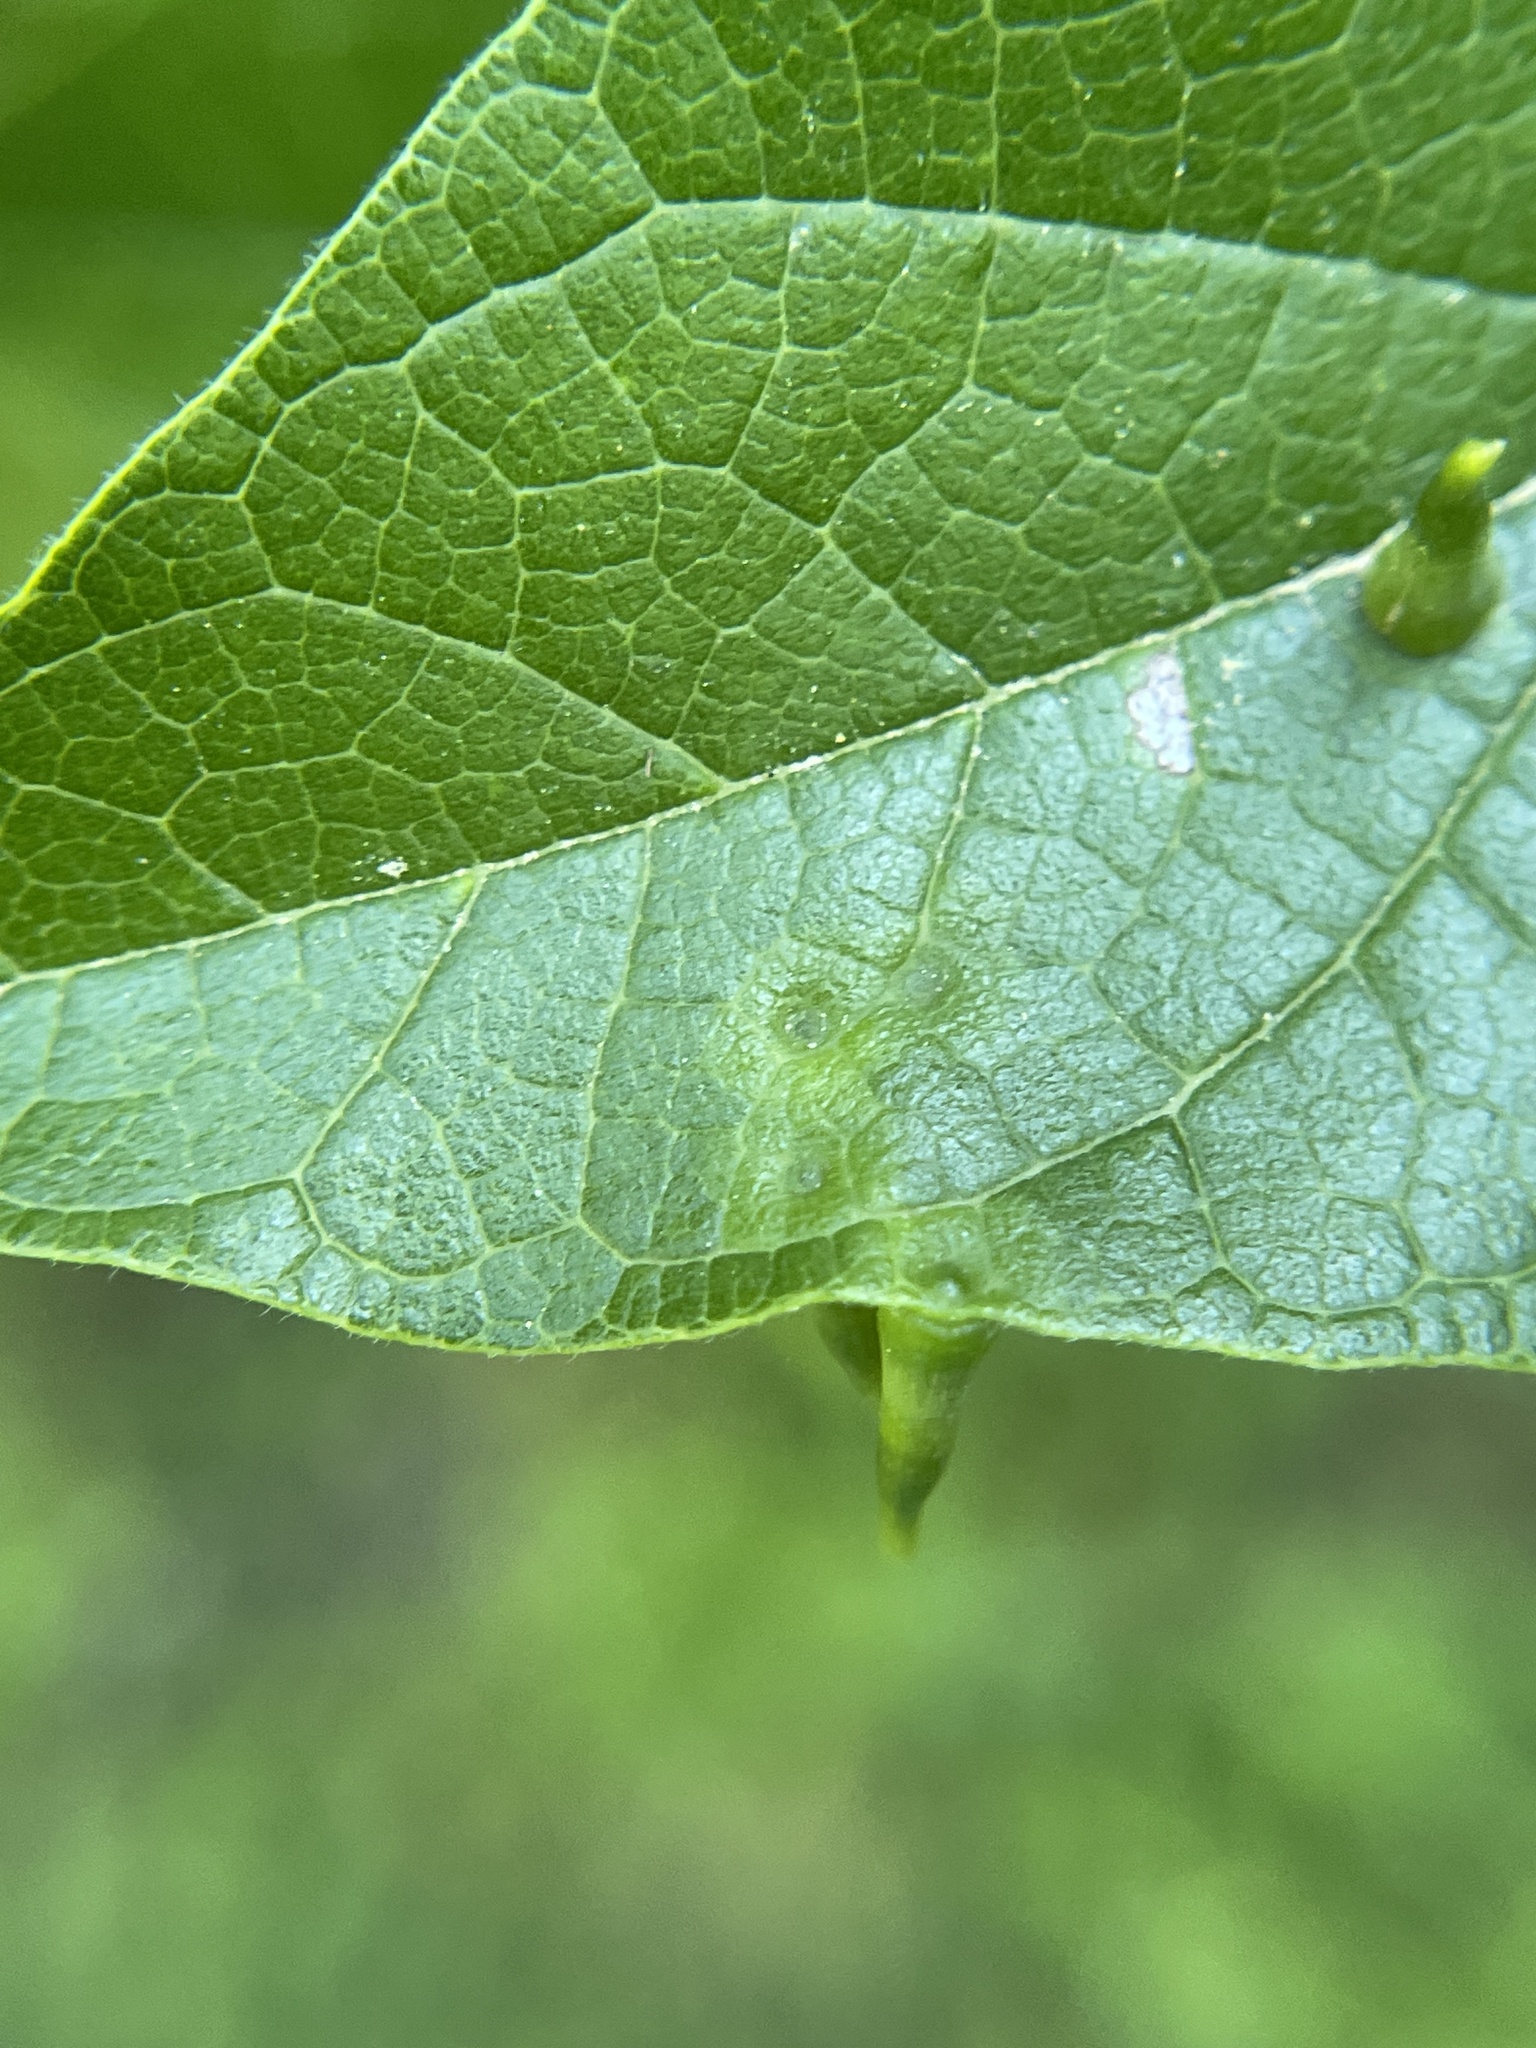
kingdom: Animalia
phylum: Arthropoda
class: Insecta
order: Diptera
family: Cecidomyiidae
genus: Celticecis
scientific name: Celticecis subulata
